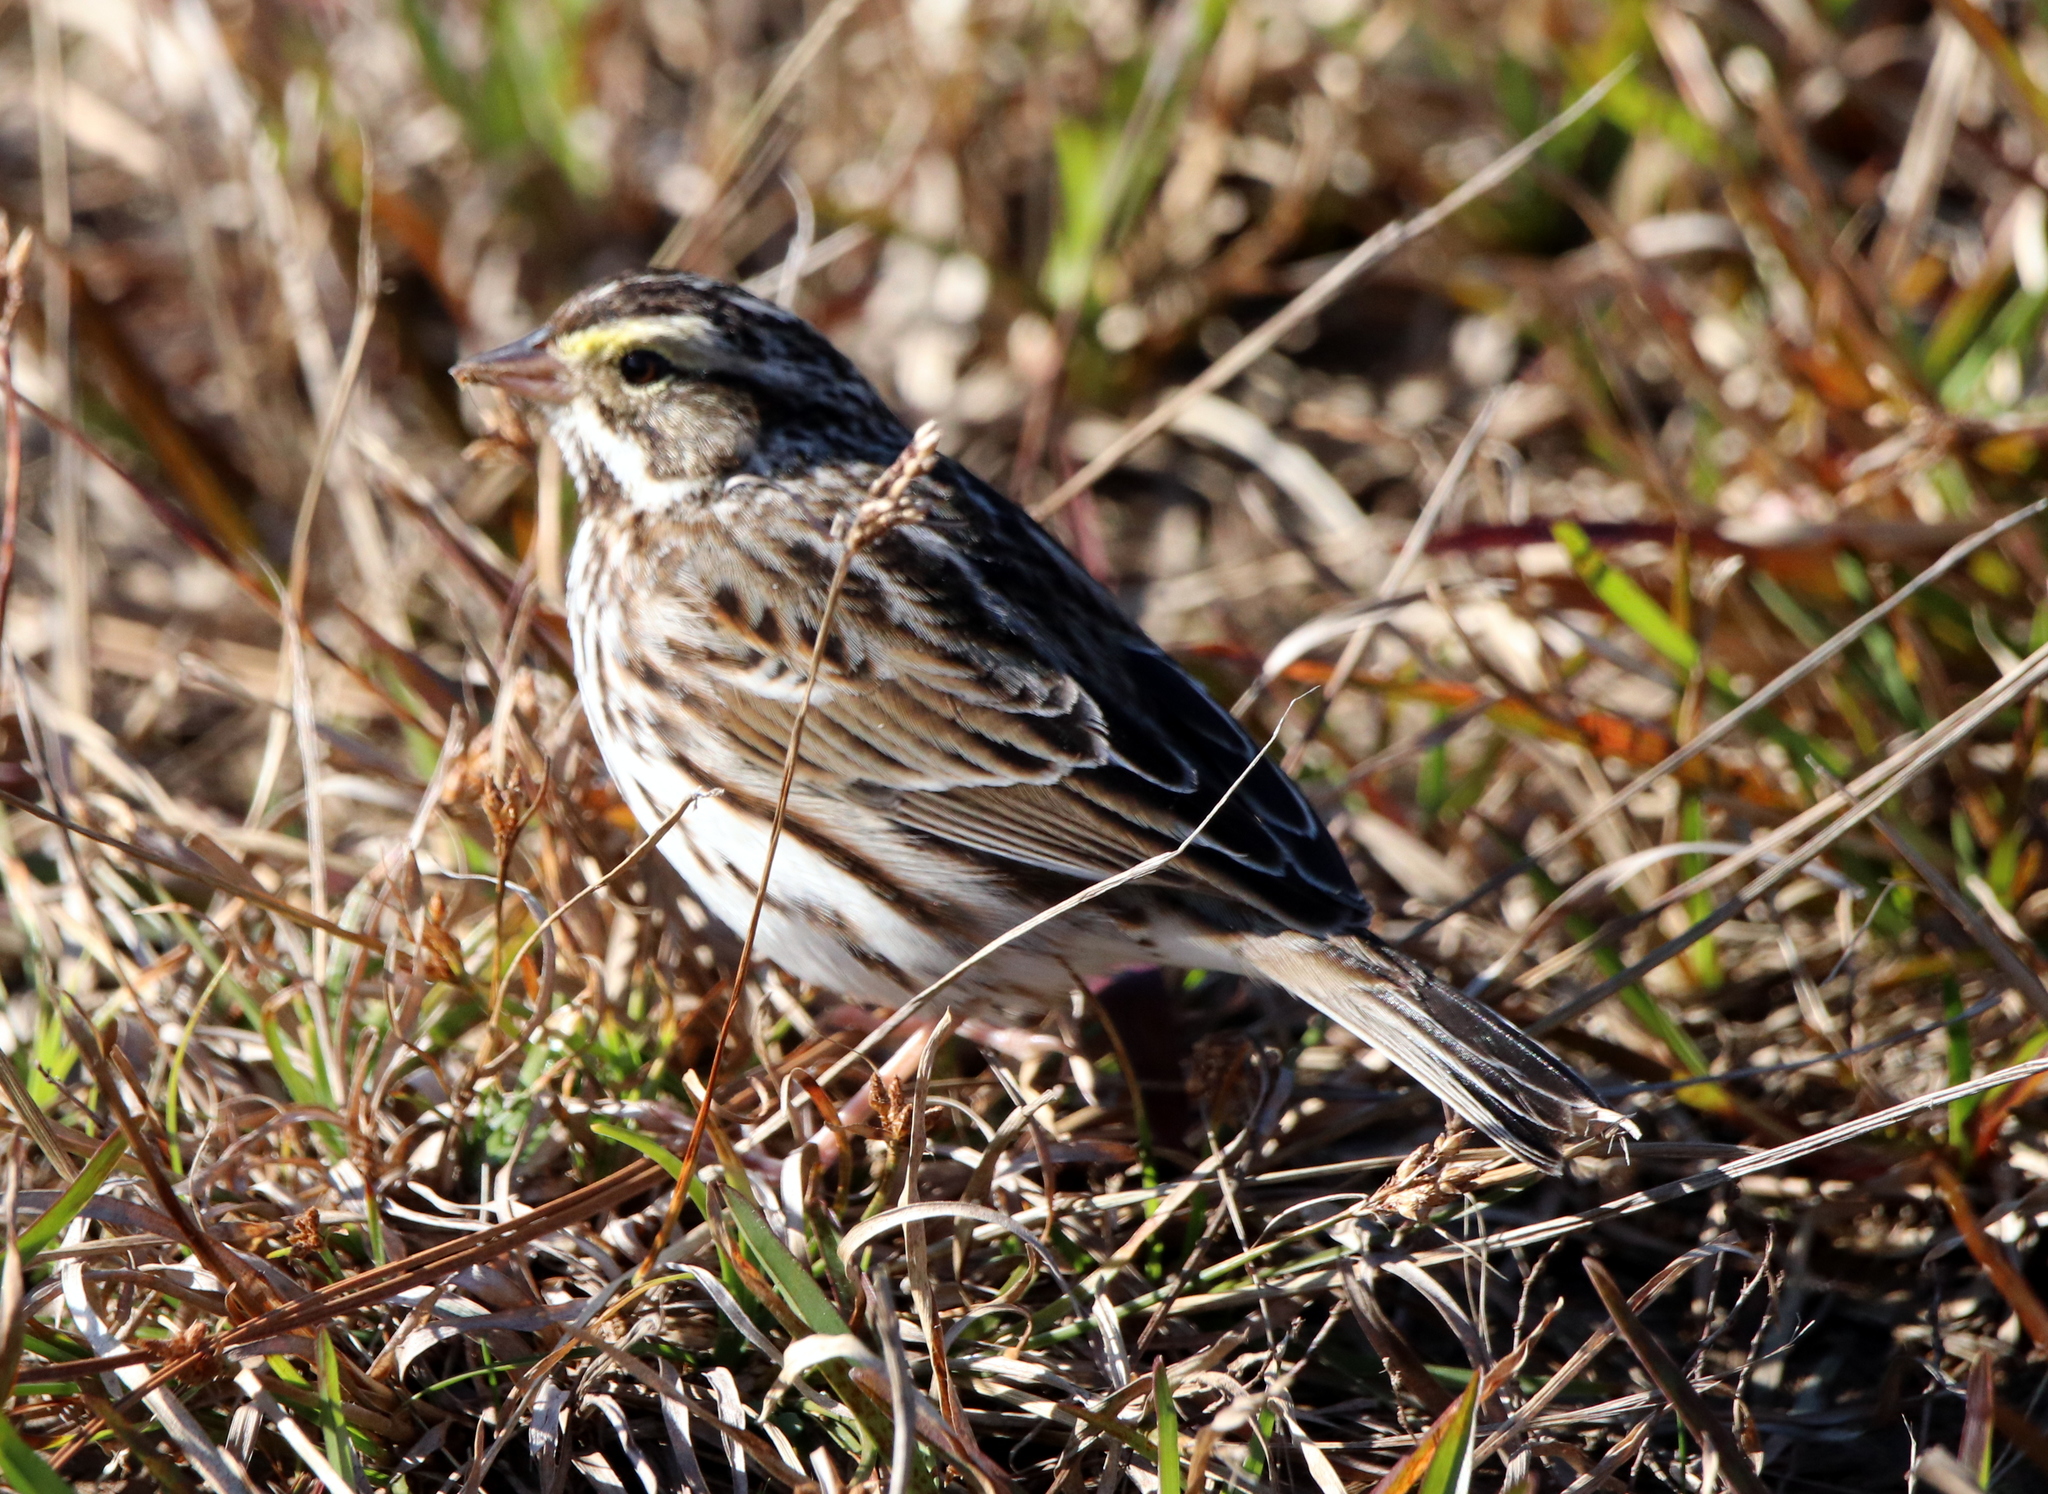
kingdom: Animalia
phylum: Chordata
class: Aves
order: Passeriformes
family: Passerellidae
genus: Passerculus
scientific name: Passerculus sandwichensis
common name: Savannah sparrow
